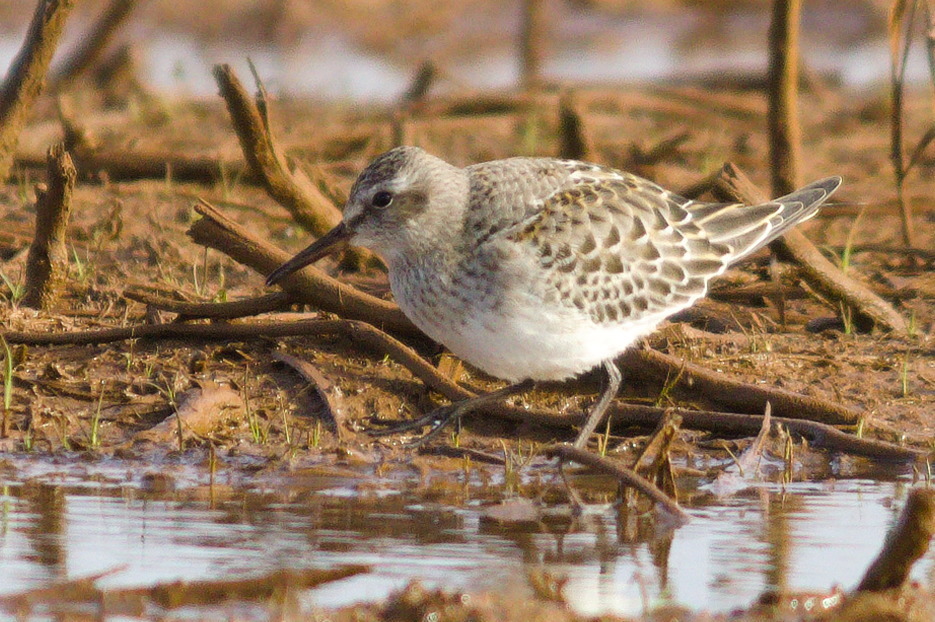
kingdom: Animalia
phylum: Chordata
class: Aves
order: Charadriiformes
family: Scolopacidae
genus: Calidris
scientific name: Calidris fuscicollis
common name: White-rumped sandpiper
